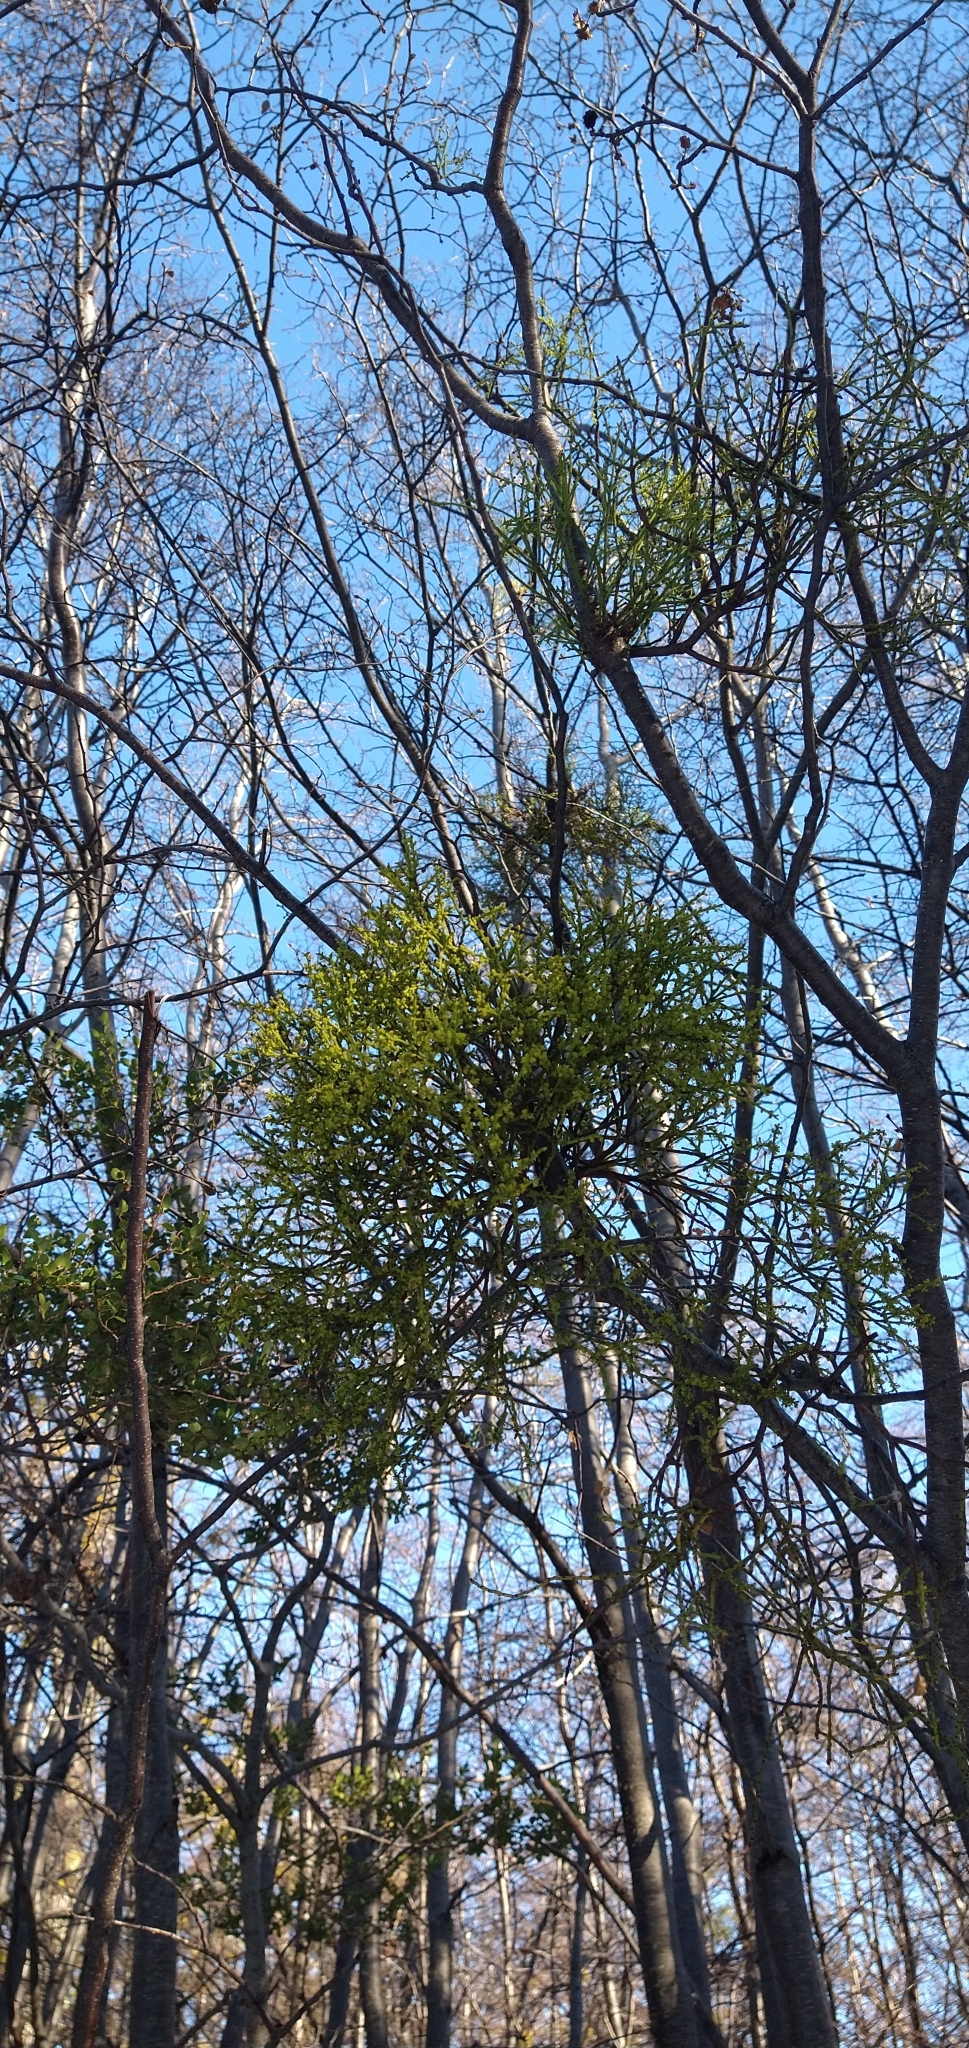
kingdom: Plantae
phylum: Tracheophyta
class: Magnoliopsida
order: Santalales
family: Misodendraceae
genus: Misodendrum
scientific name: Misodendrum punctulatum
